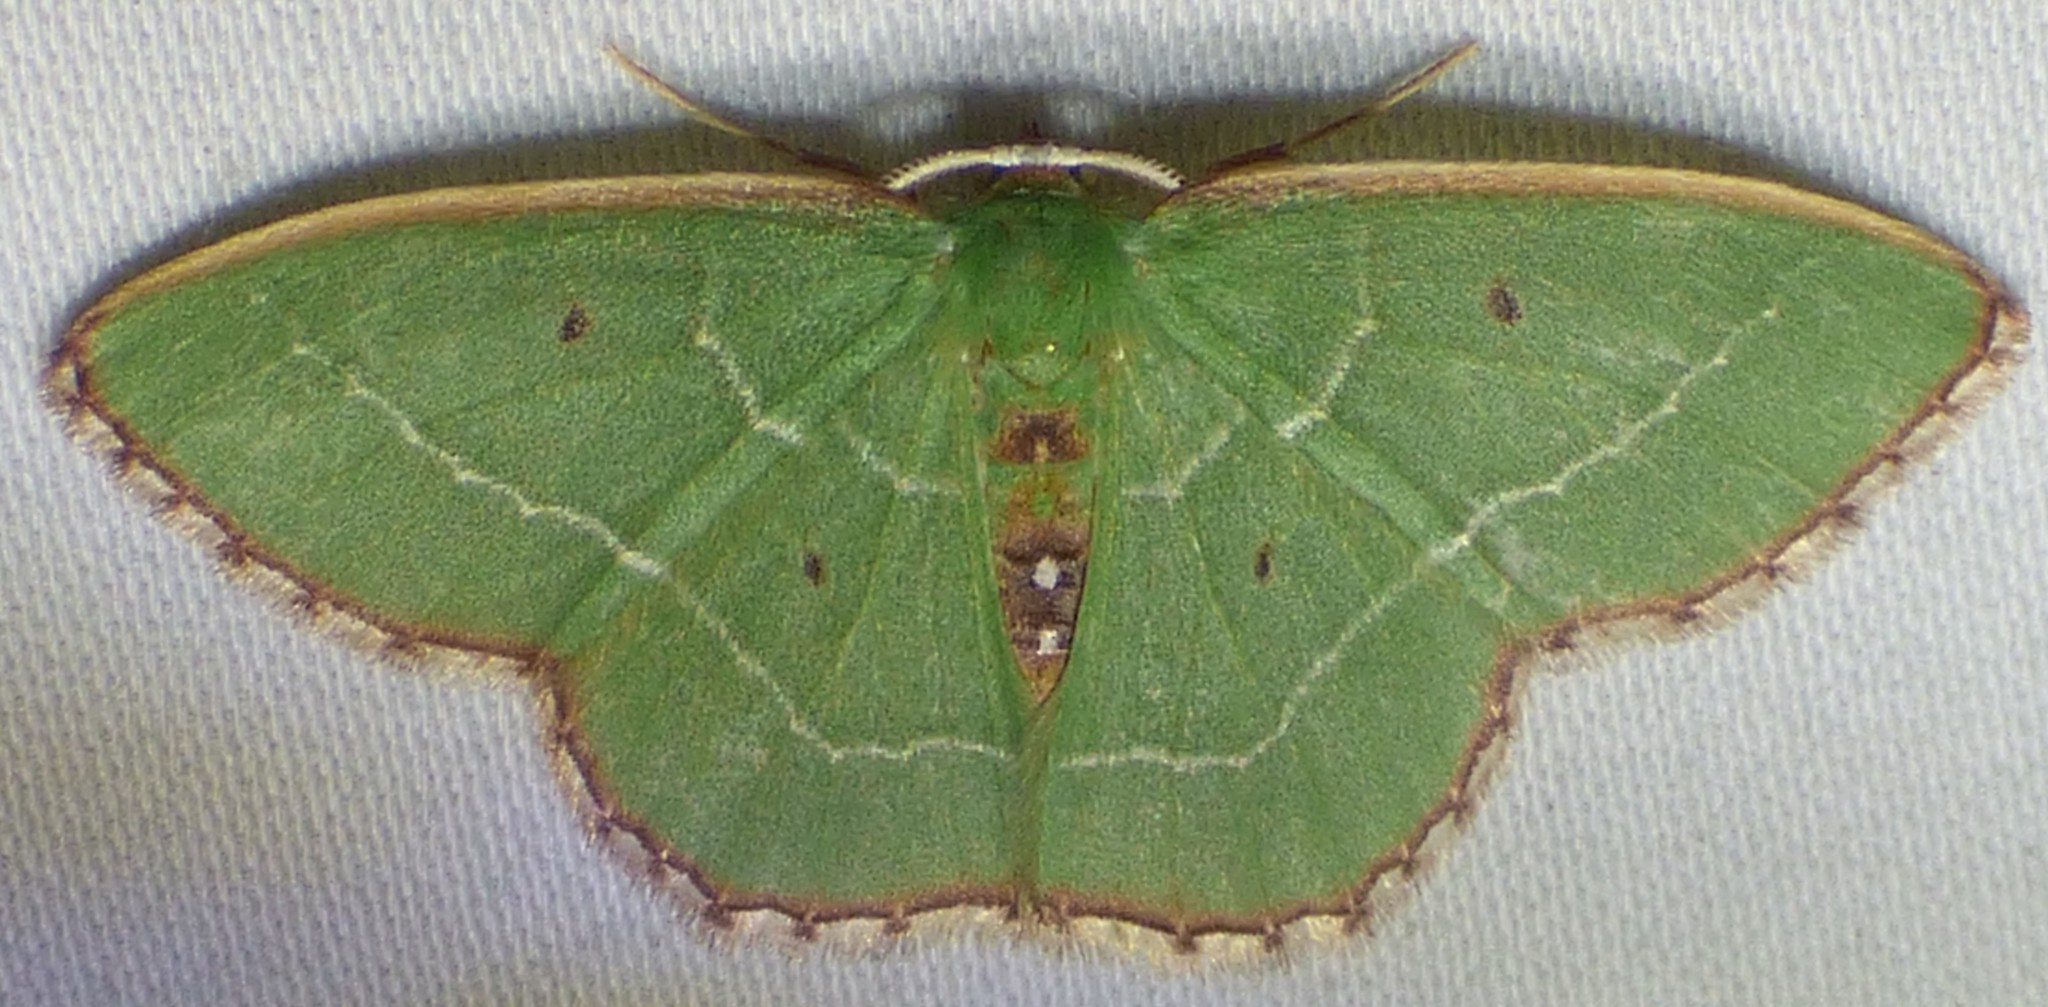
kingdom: Animalia
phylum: Arthropoda
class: Insecta
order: Lepidoptera
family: Geometridae
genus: Nemoria
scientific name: Nemoria saturiba
